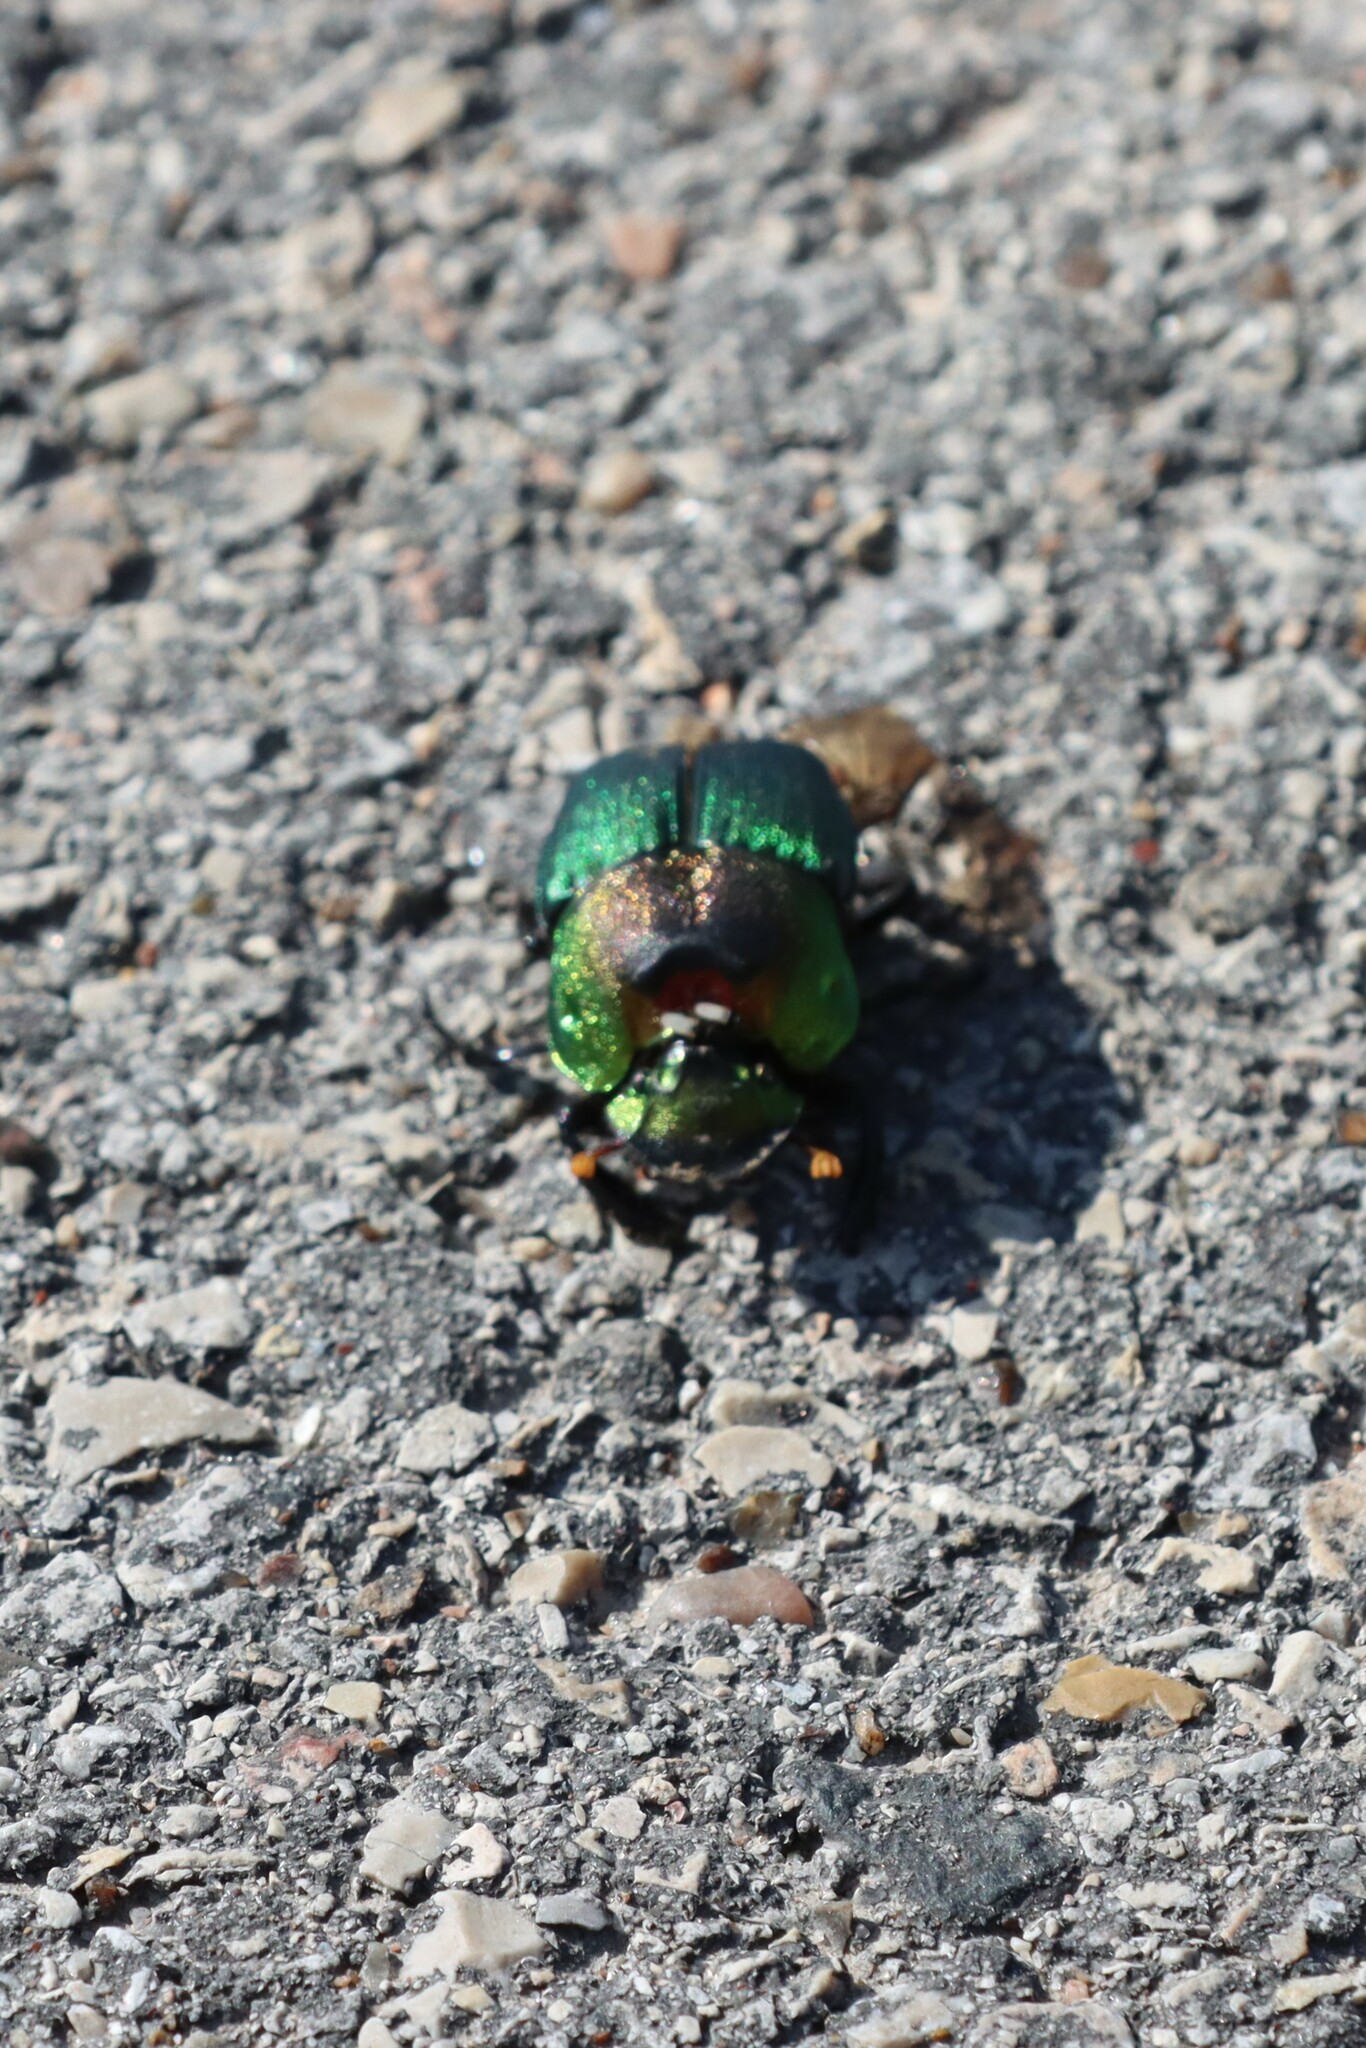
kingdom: Animalia
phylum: Arthropoda
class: Insecta
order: Coleoptera
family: Scarabaeidae
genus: Phanaeus
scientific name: Phanaeus difformis
